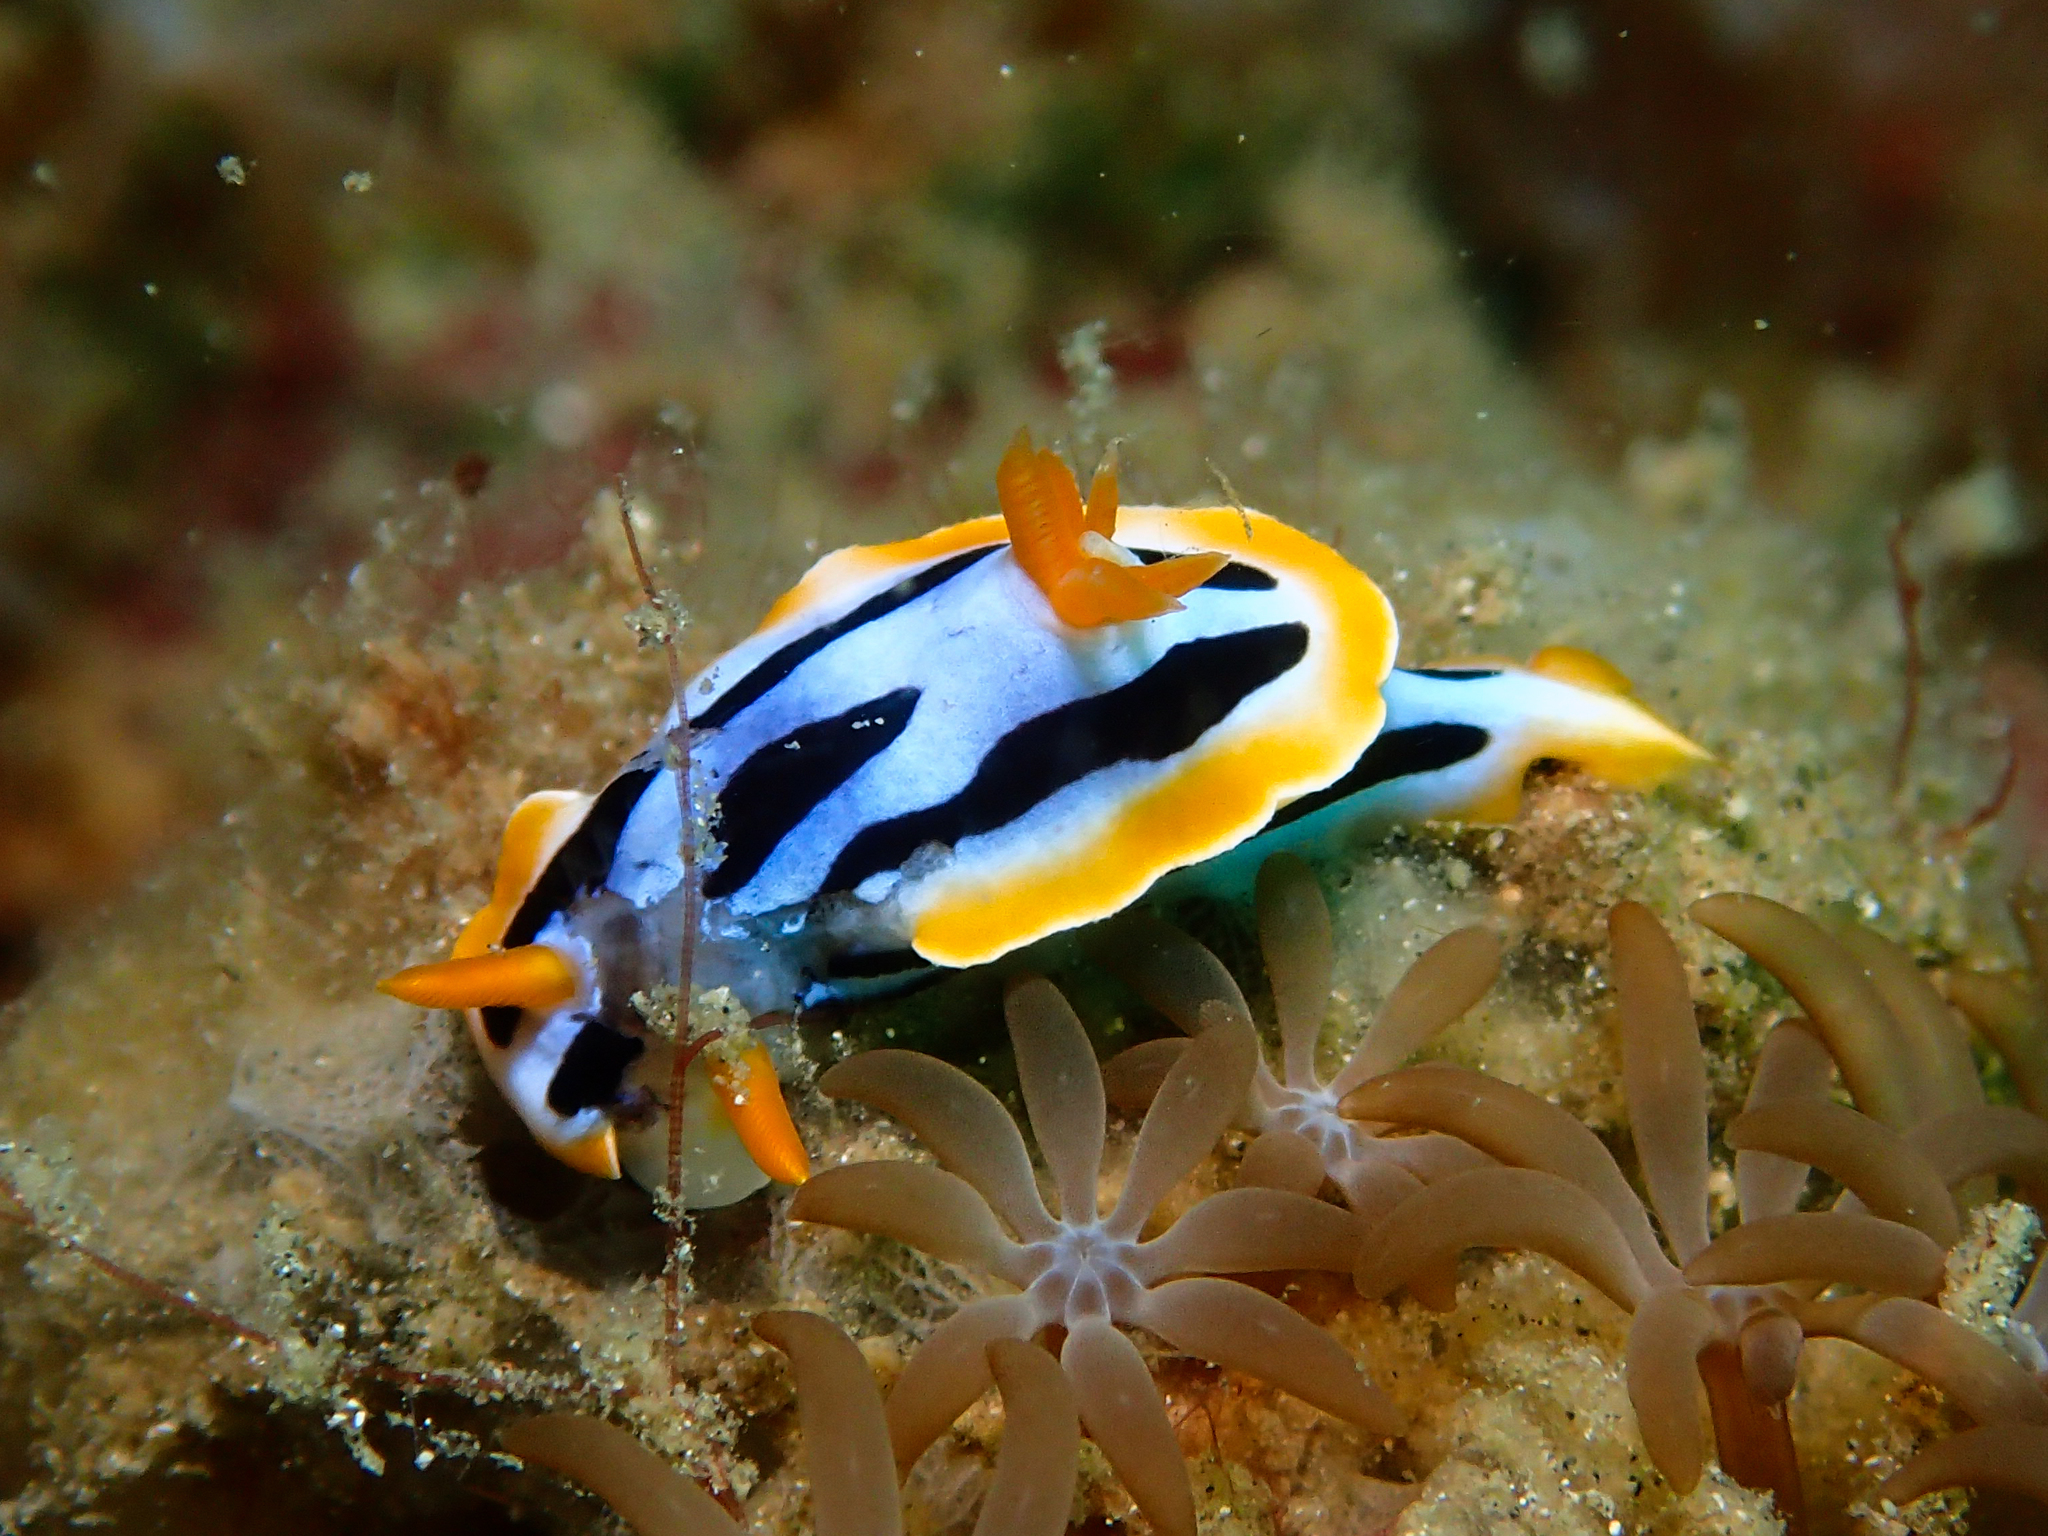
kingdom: Animalia
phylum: Mollusca
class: Gastropoda
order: Nudibranchia
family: Chromodorididae
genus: Chromodoris
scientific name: Chromodoris strigata
